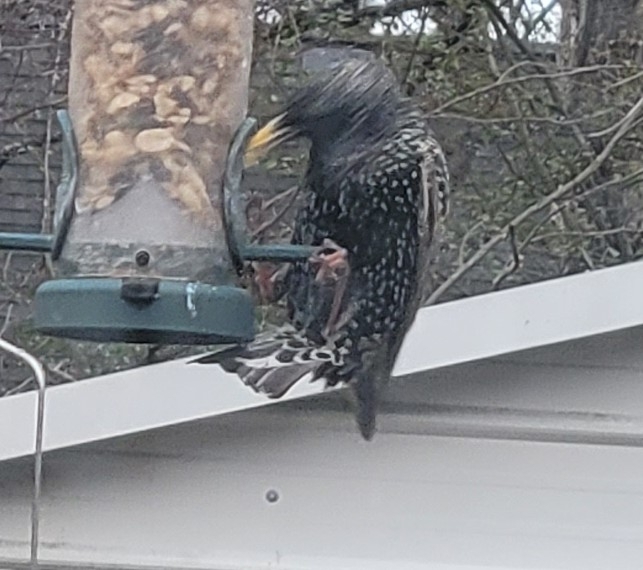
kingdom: Animalia
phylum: Chordata
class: Aves
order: Passeriformes
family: Sturnidae
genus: Sturnus
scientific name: Sturnus vulgaris
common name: Common starling
